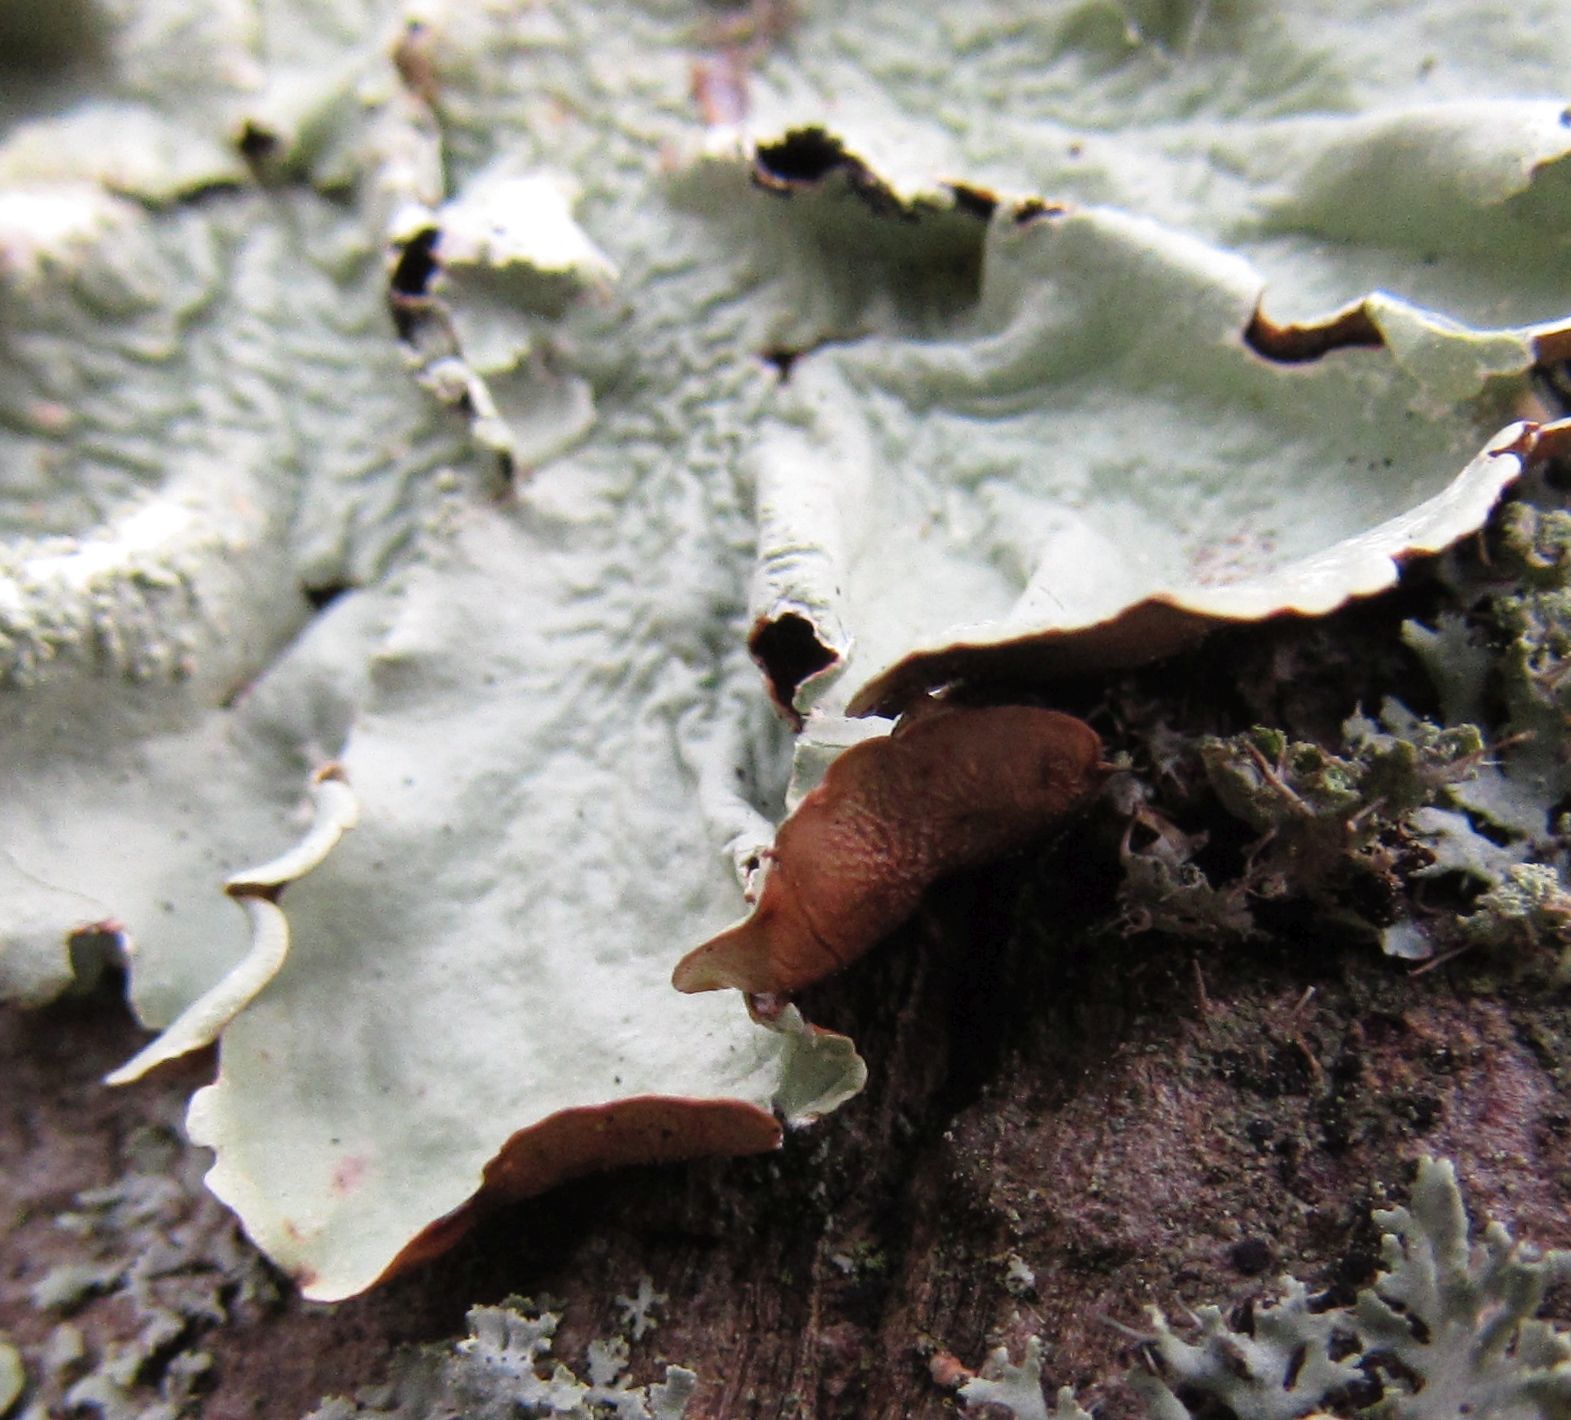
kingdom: Fungi
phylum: Ascomycota
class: Lecanoromycetes
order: Lecanorales
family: Parmeliaceae
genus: Flavoparmelia
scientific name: Flavoparmelia caperata
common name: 40-mile per hour lichen
